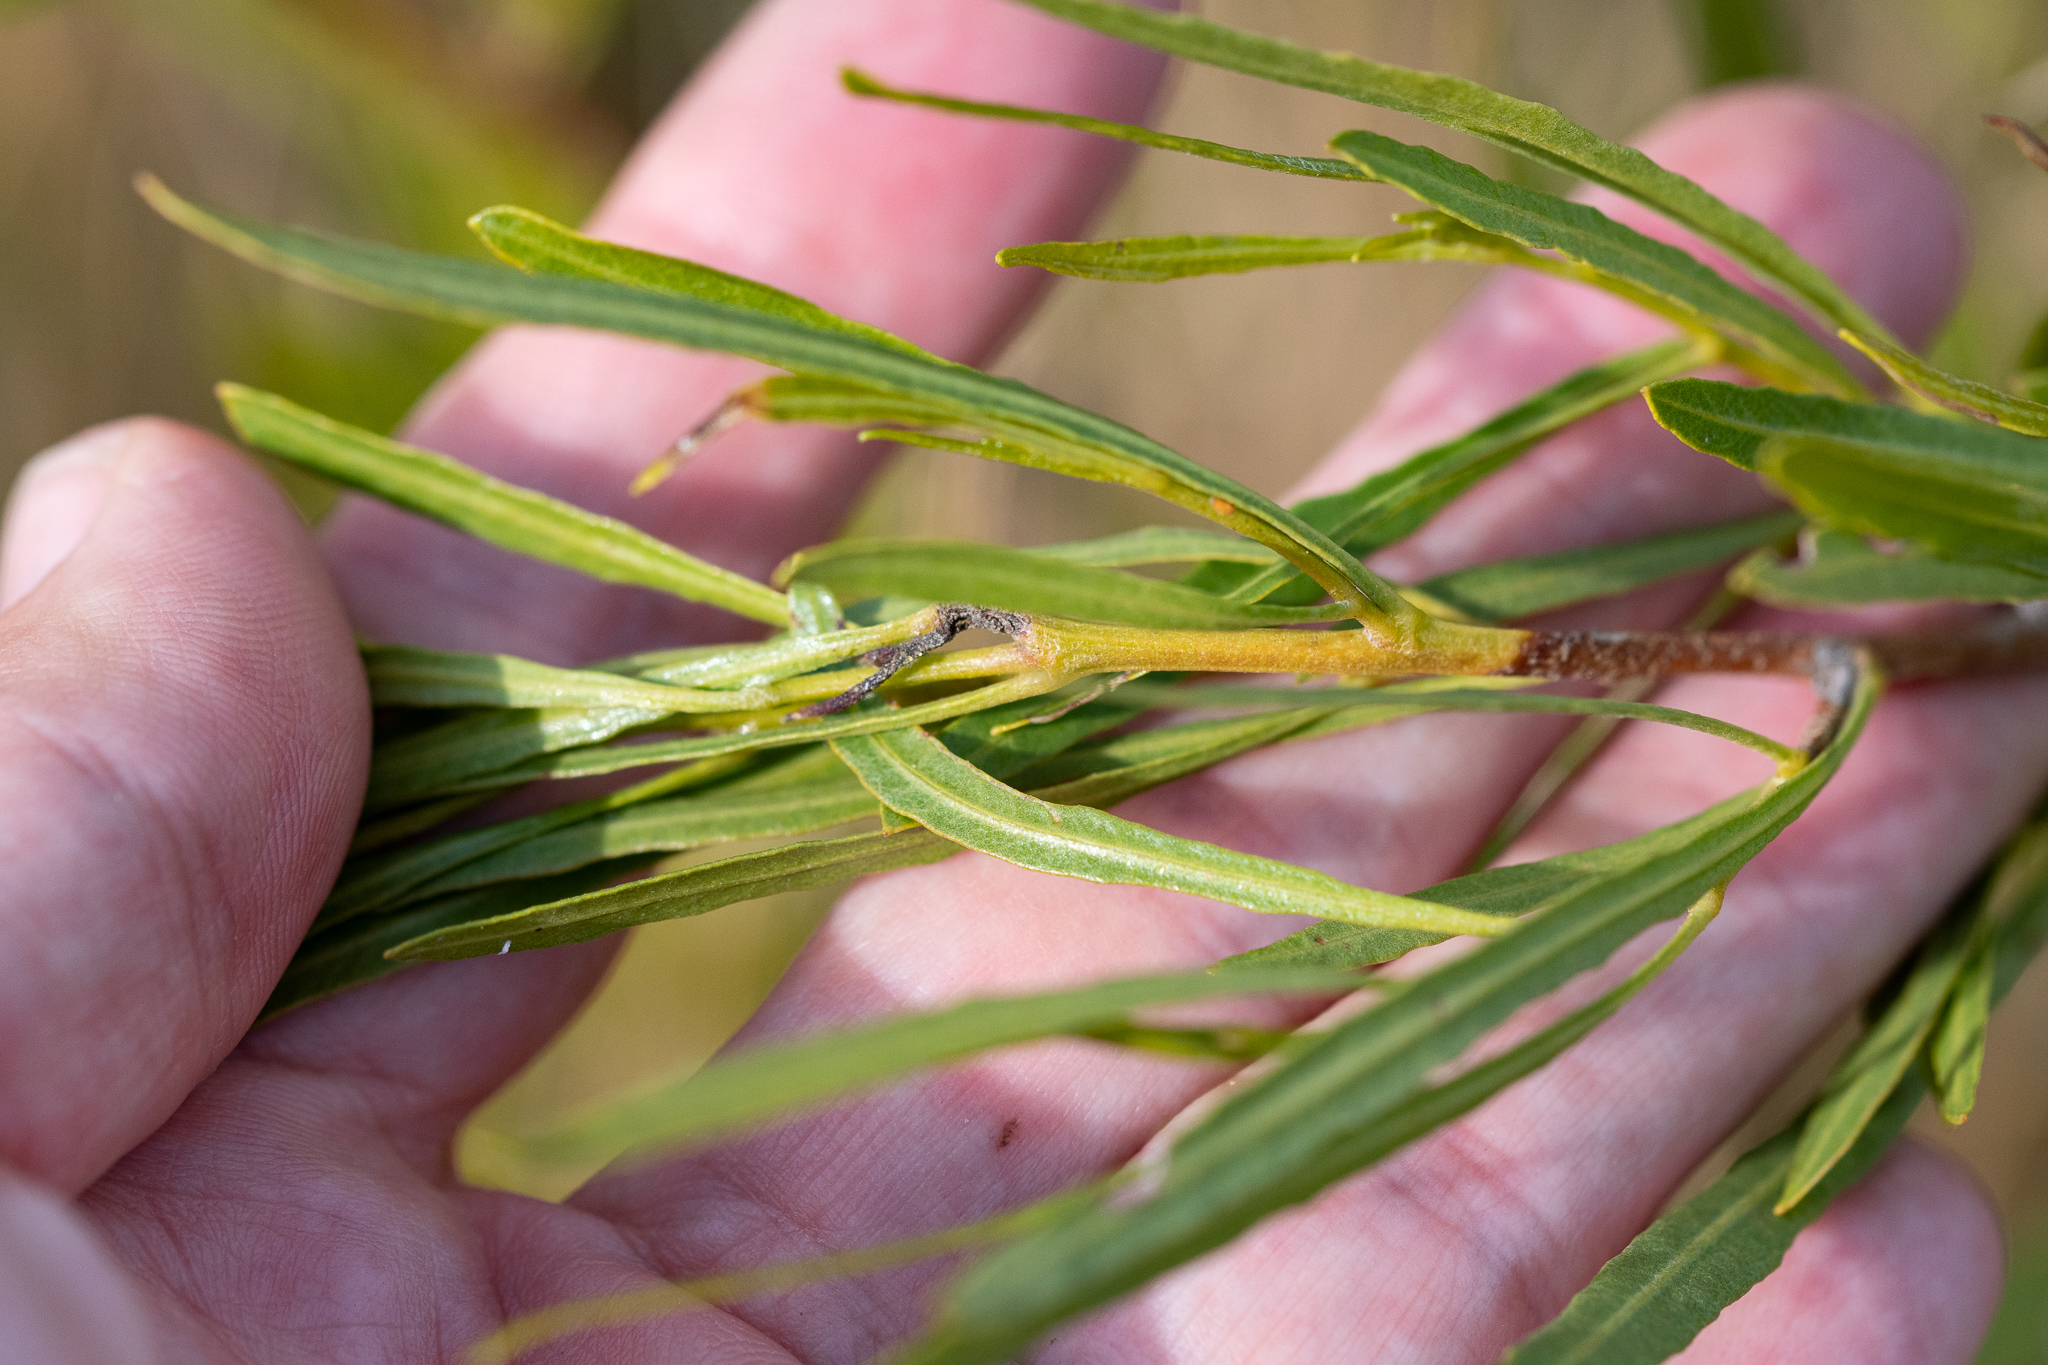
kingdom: Plantae
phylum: Tracheophyta
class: Magnoliopsida
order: Sapindales
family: Sapindaceae
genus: Dodonaea
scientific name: Dodonaea viscosa
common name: Hopbush
